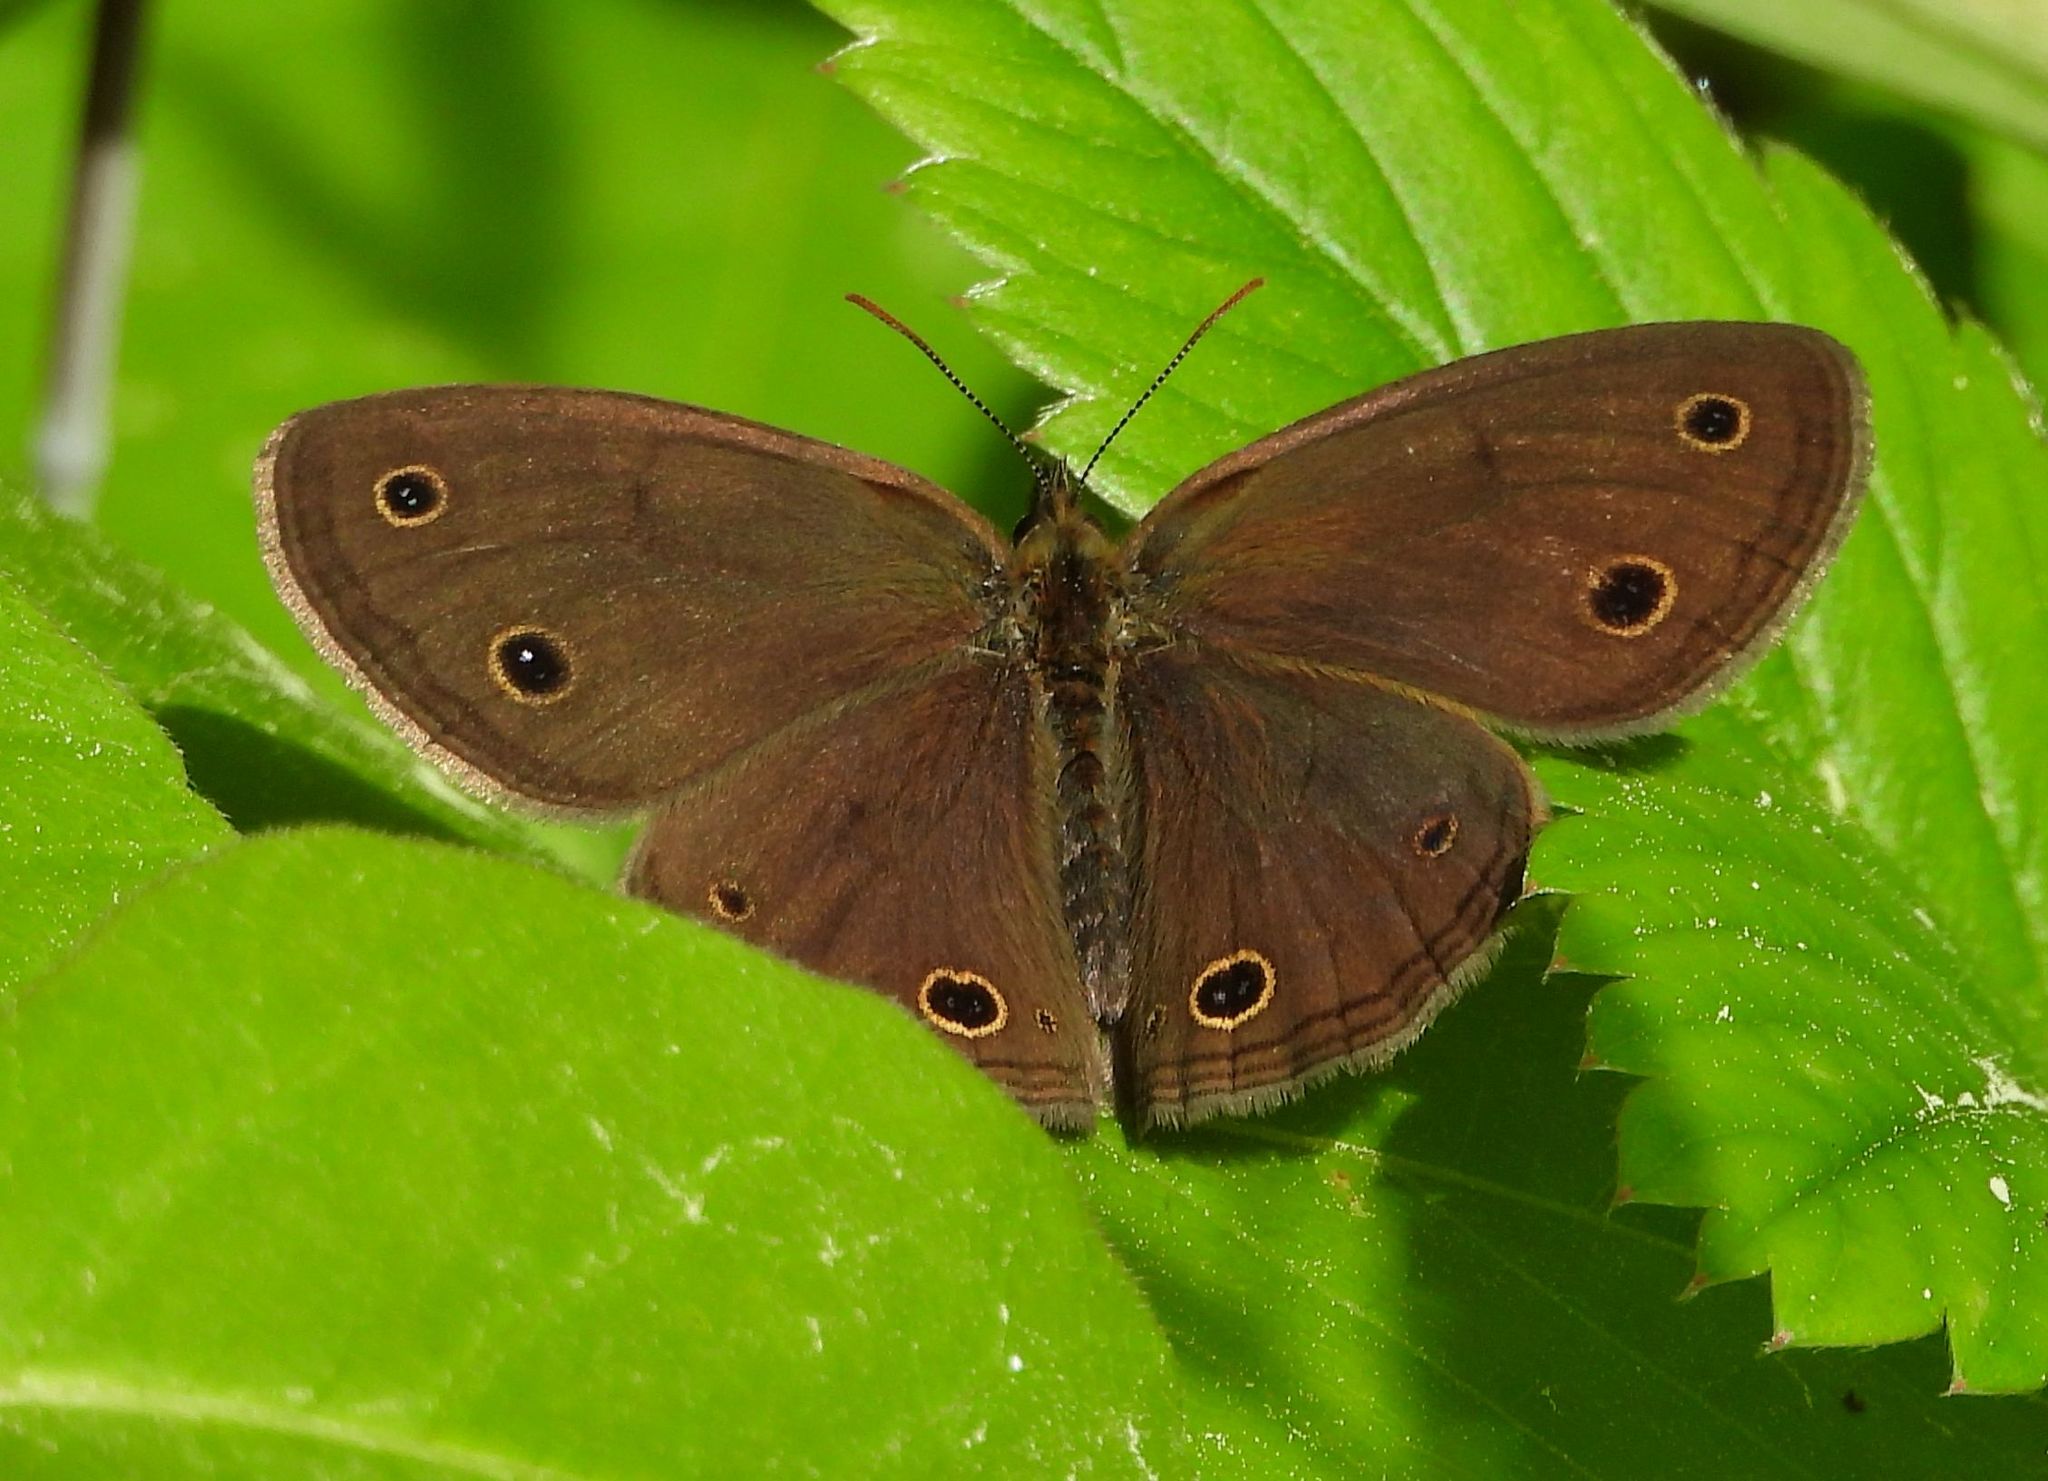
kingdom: Animalia
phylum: Arthropoda
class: Insecta
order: Lepidoptera
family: Nymphalidae
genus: Euptychia
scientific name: Euptychia cymela
